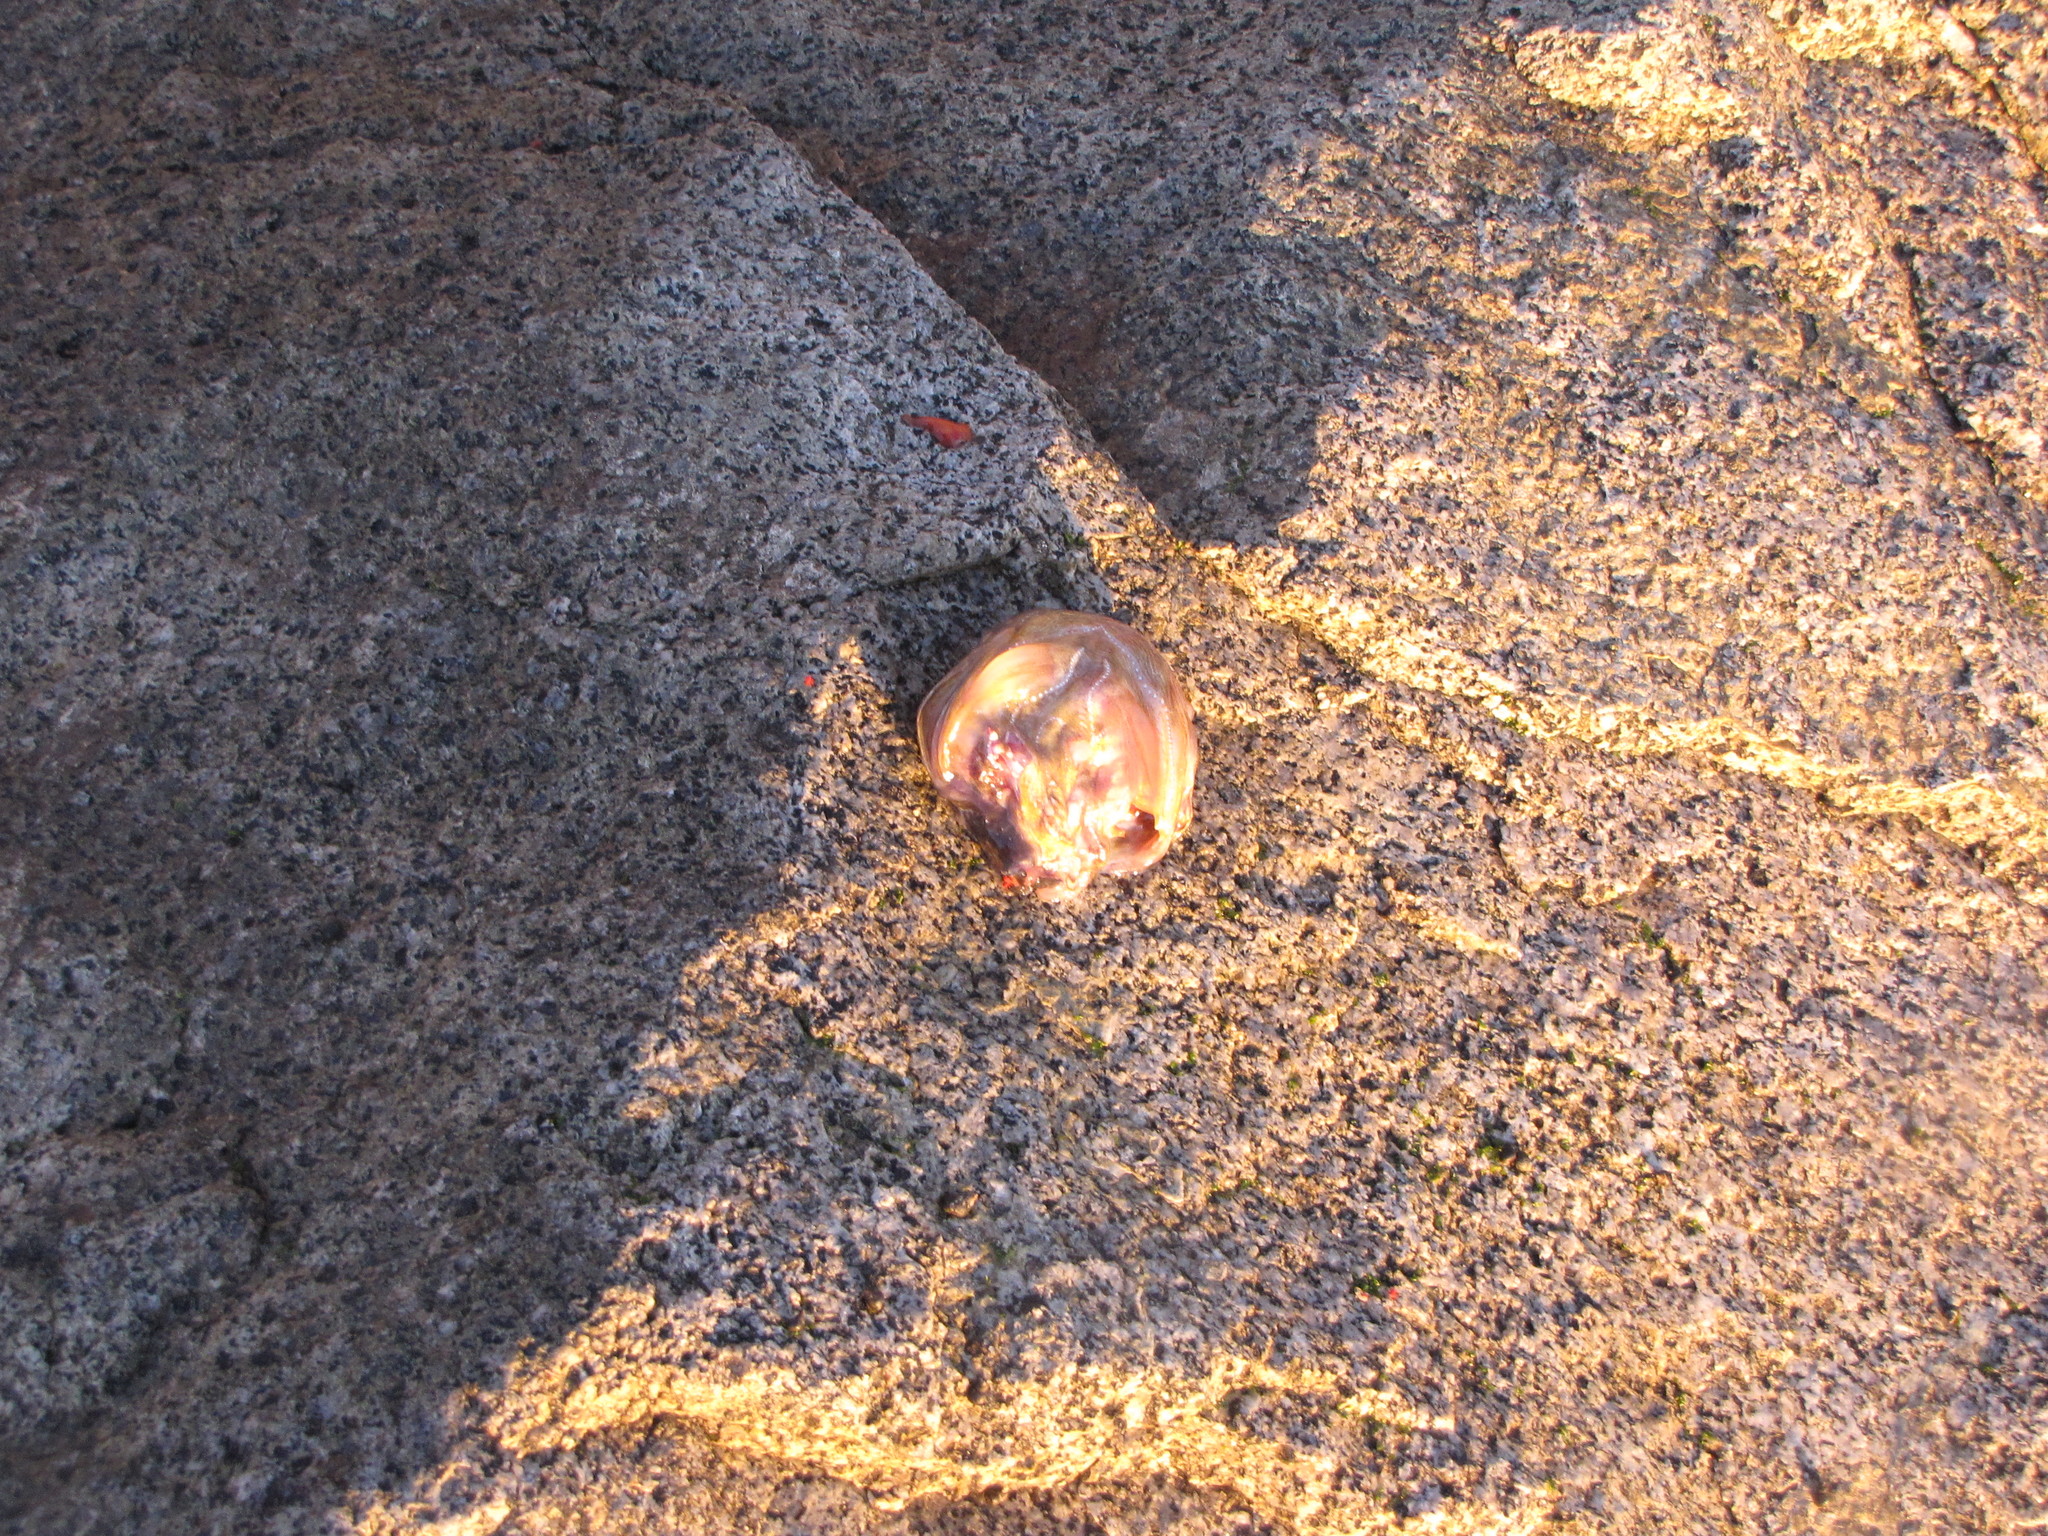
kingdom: Animalia
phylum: Chordata
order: Batrachoidiformes
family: Batrachoididae
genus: Porichthys
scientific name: Porichthys notatus
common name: Plainfin midshipman
